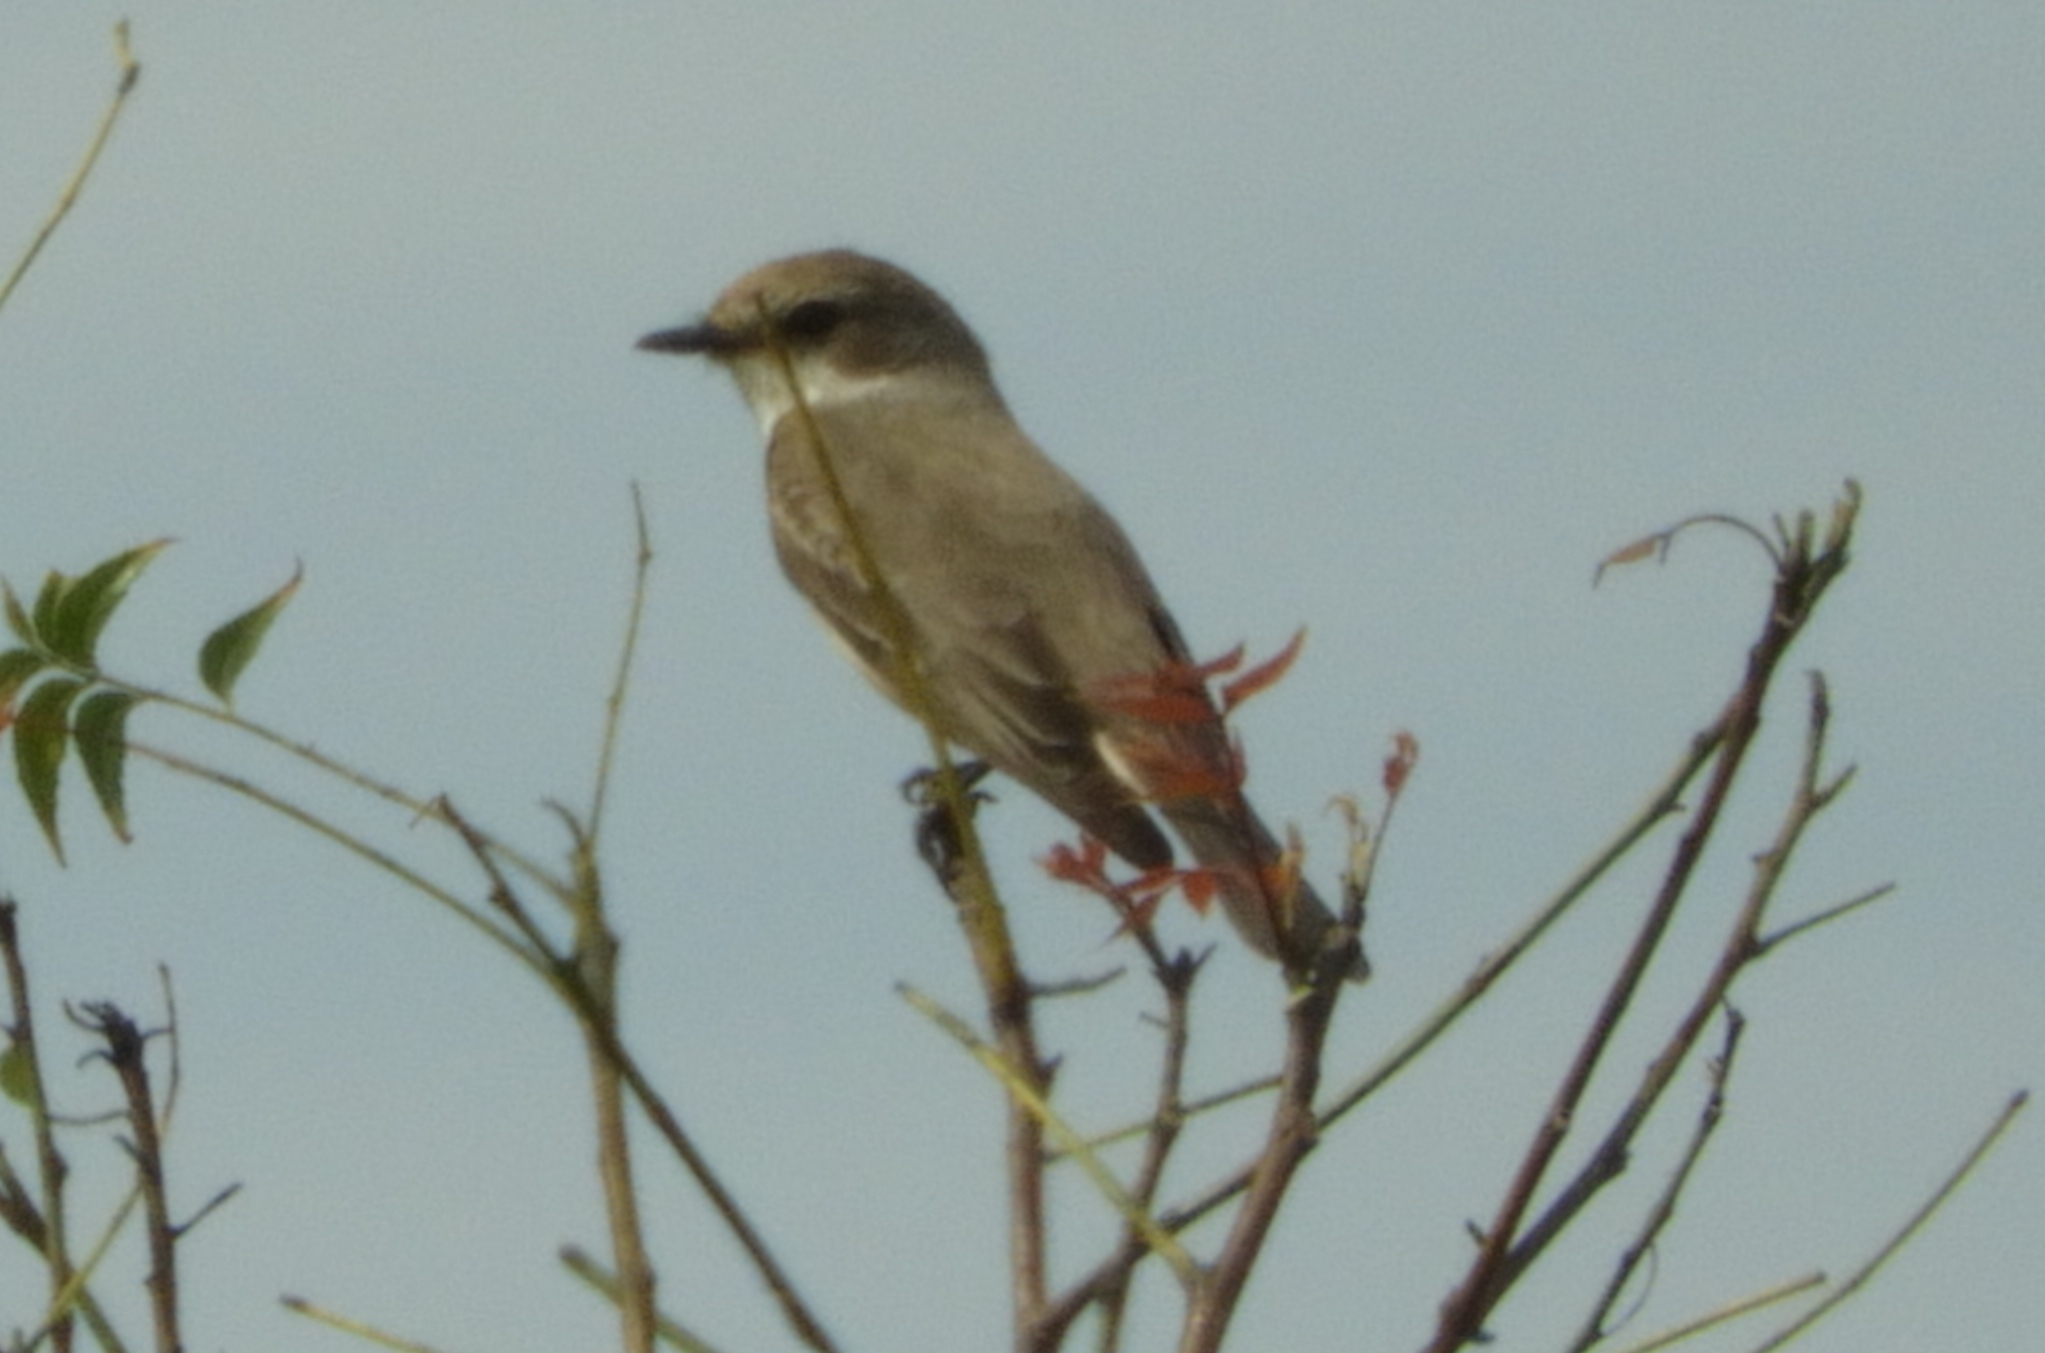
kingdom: Animalia
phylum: Chordata
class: Aves
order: Passeriformes
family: Tyrannidae
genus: Pyrocephalus
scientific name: Pyrocephalus rubinus
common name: Vermilion flycatcher
